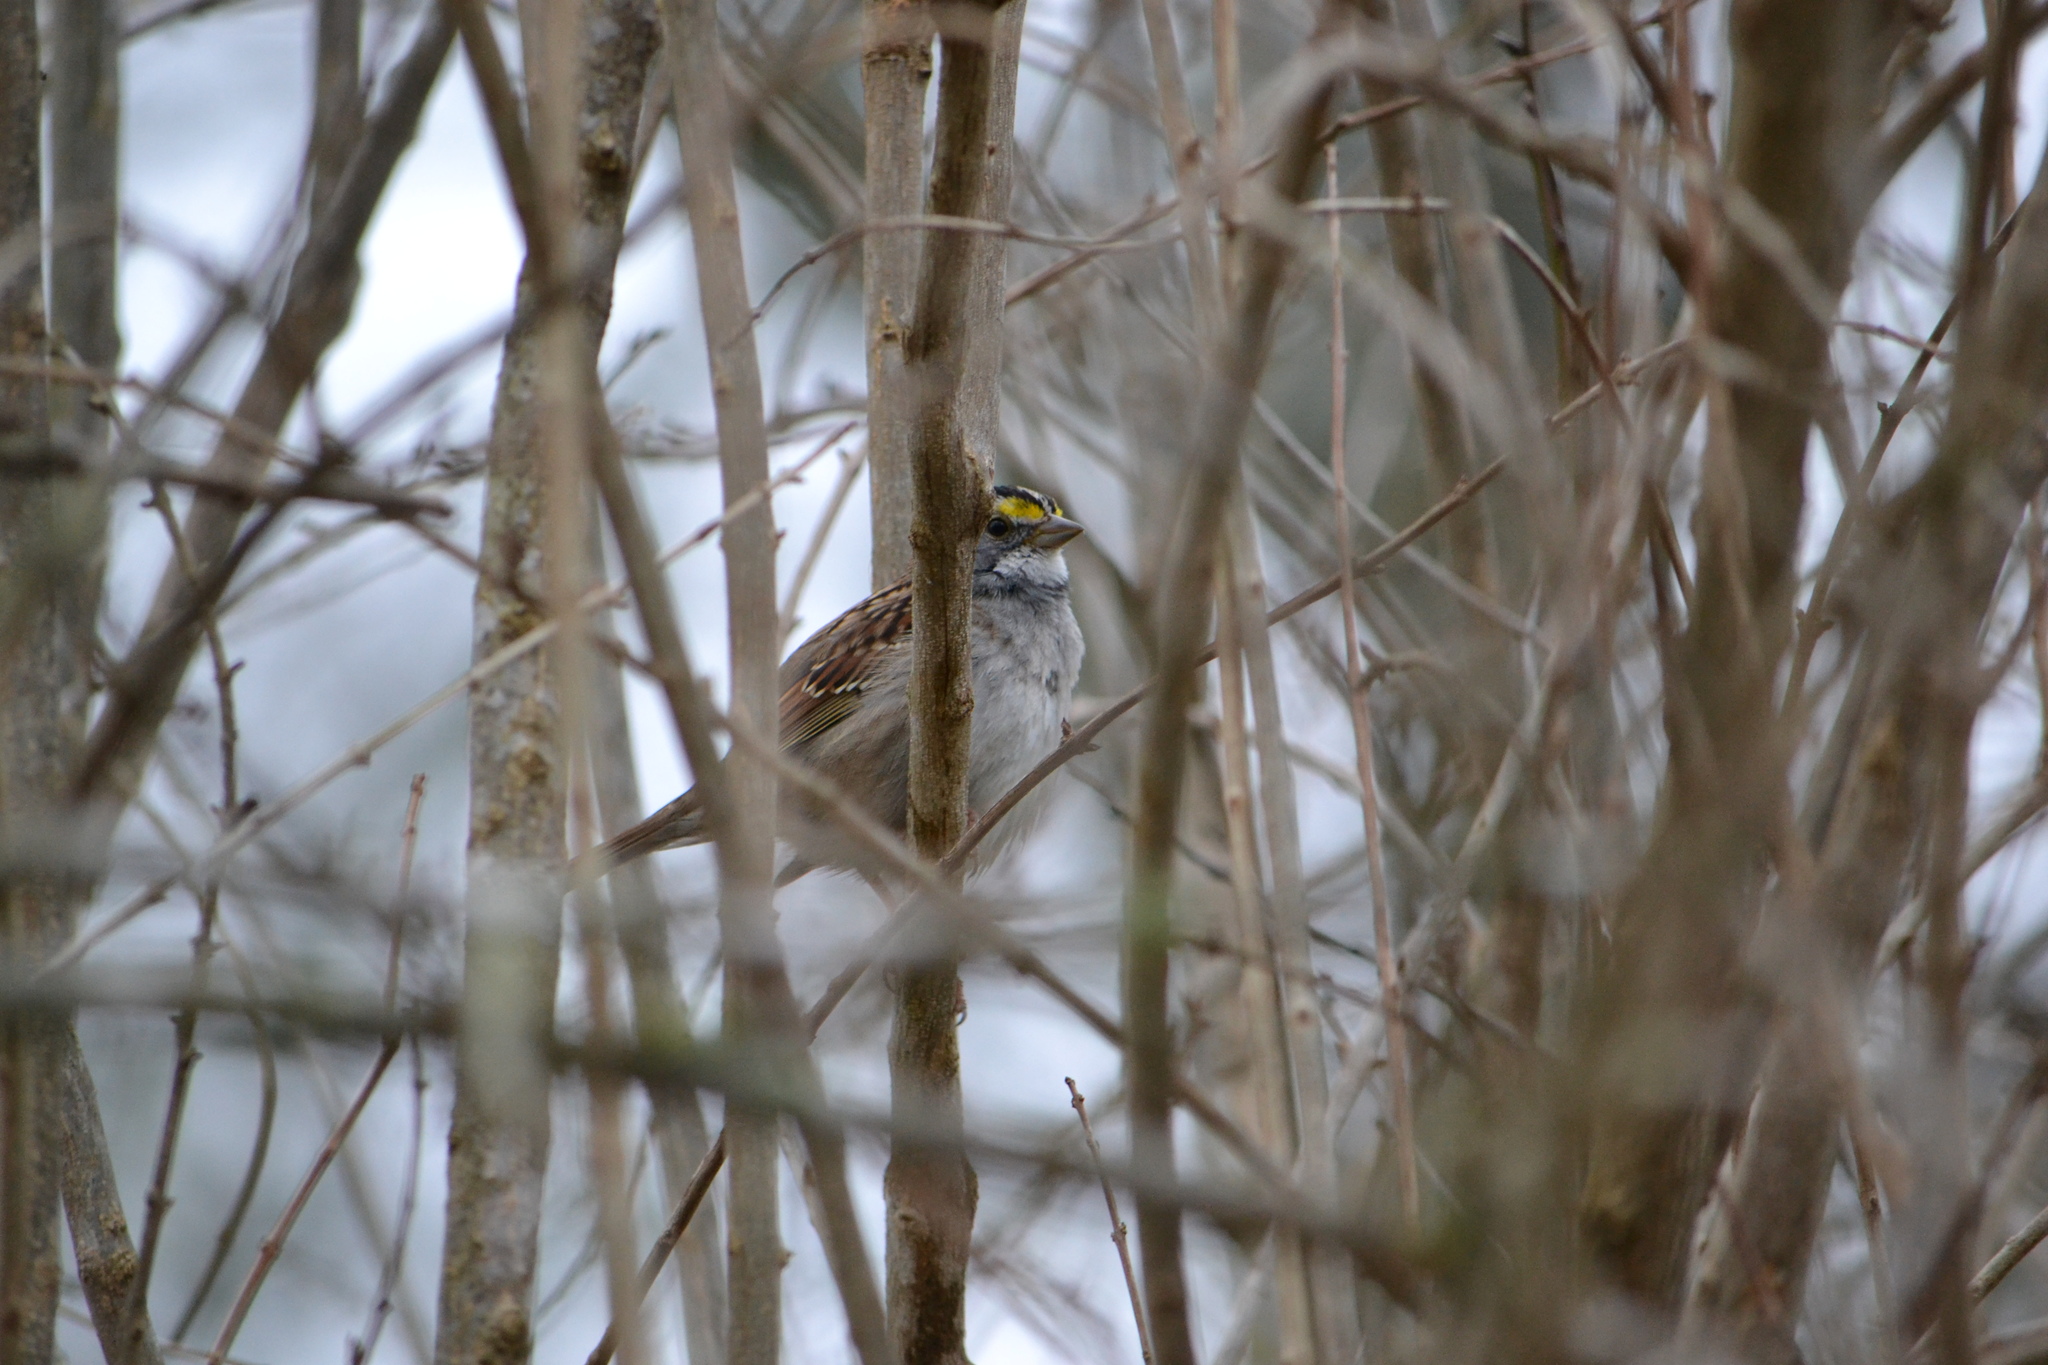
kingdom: Animalia
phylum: Chordata
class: Aves
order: Passeriformes
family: Passerellidae
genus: Zonotrichia
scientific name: Zonotrichia albicollis
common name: White-throated sparrow
